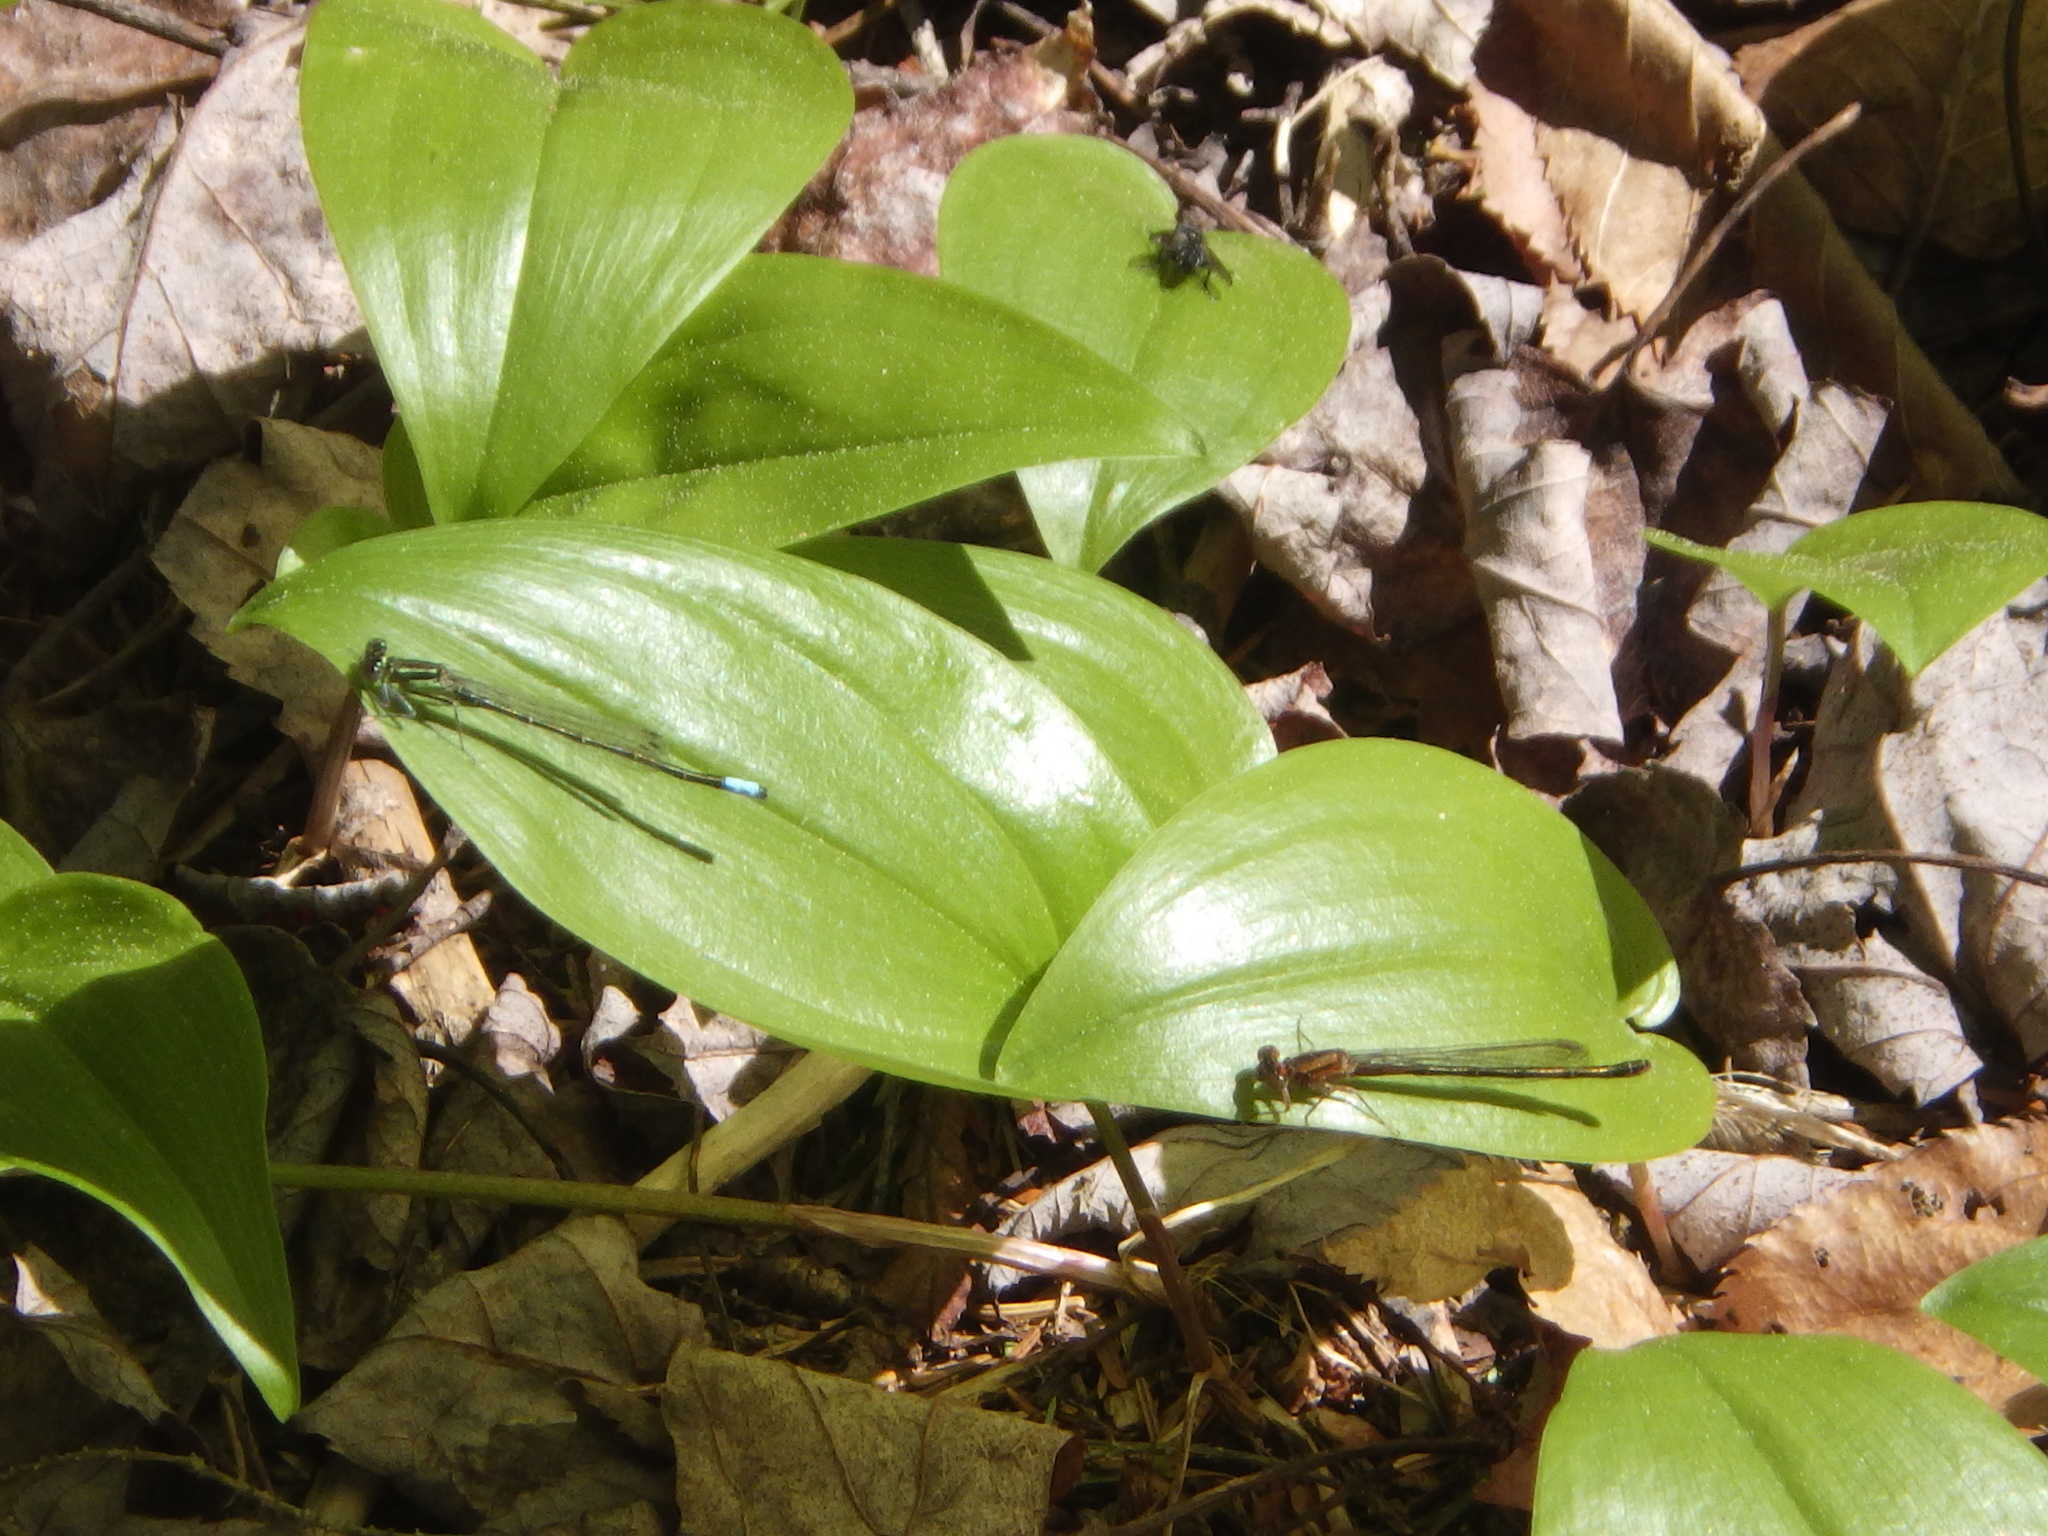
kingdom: Animalia
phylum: Arthropoda
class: Insecta
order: Odonata
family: Coenagrionidae
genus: Ischnura
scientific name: Ischnura verticalis
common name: Eastern forktail
